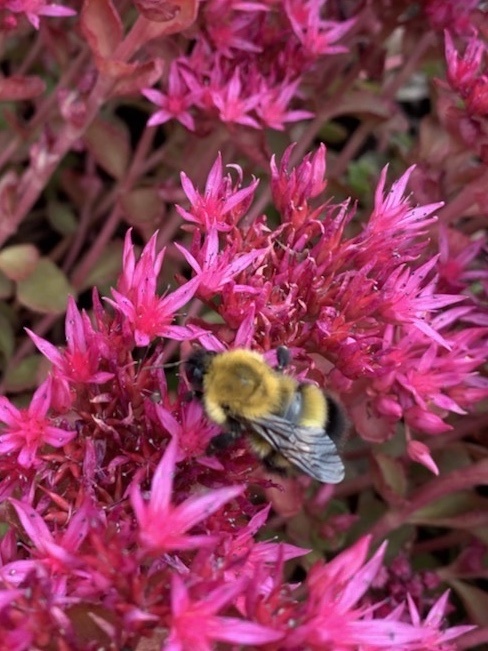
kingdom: Animalia
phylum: Arthropoda
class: Insecta
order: Hymenoptera
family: Apidae
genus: Bombus
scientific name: Bombus perplexus
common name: Confusing bumble bee
